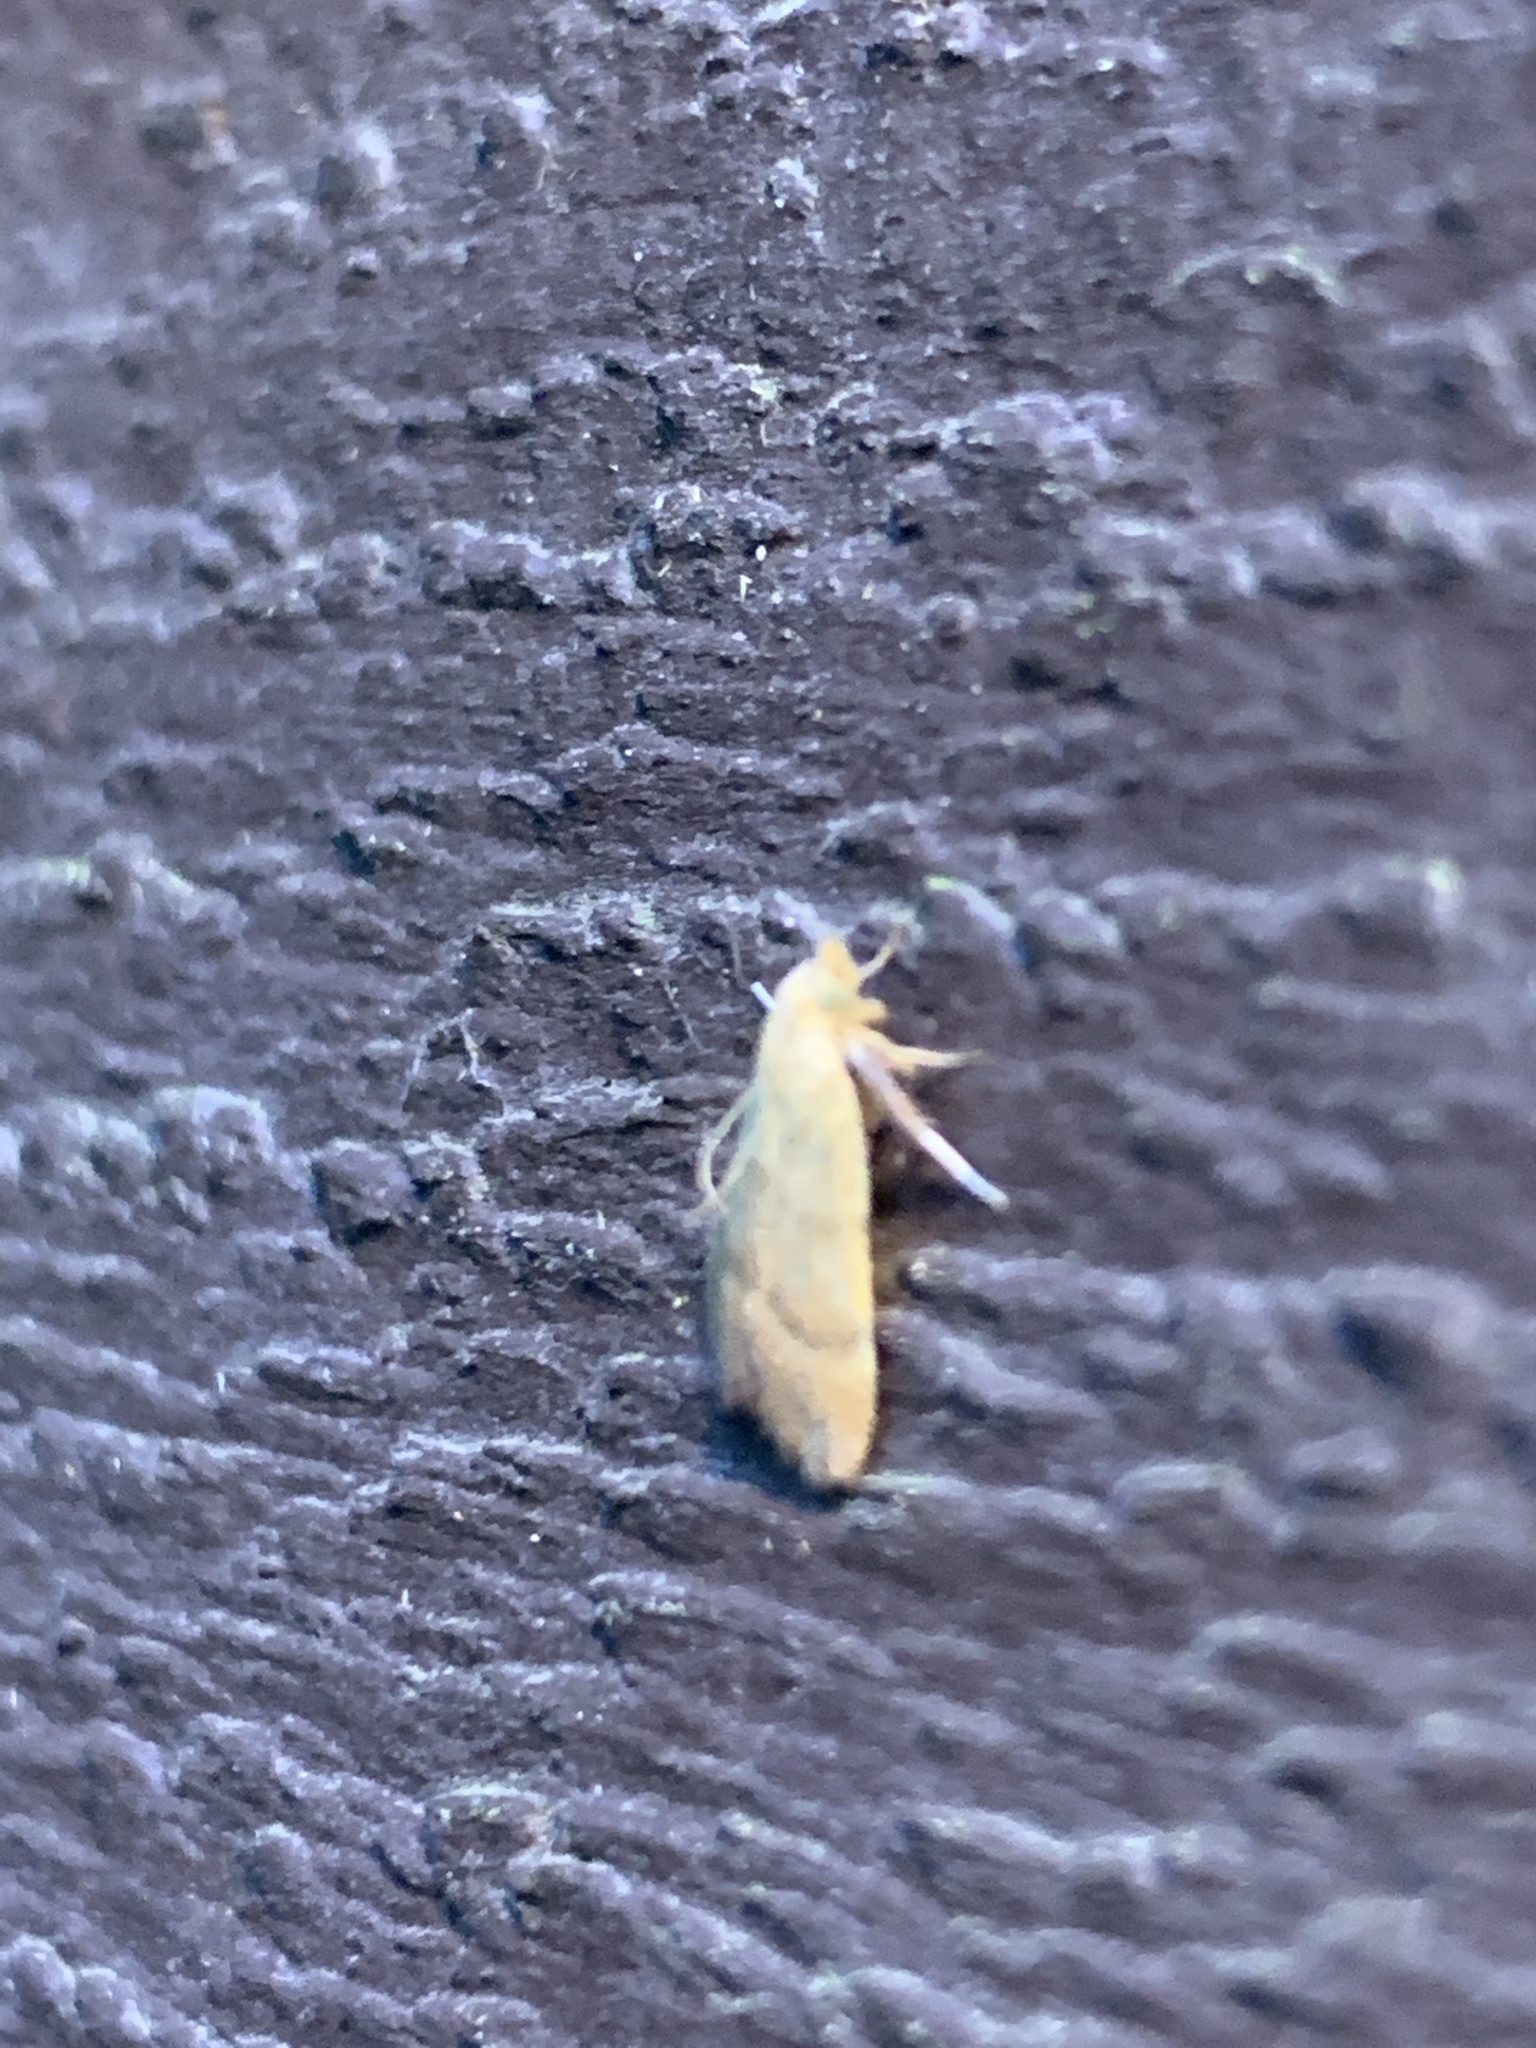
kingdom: Animalia
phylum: Arthropoda
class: Insecta
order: Lepidoptera
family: Pyralidae
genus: Condylolomia
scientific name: Condylolomia participialis
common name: Drab condylolomia moth
